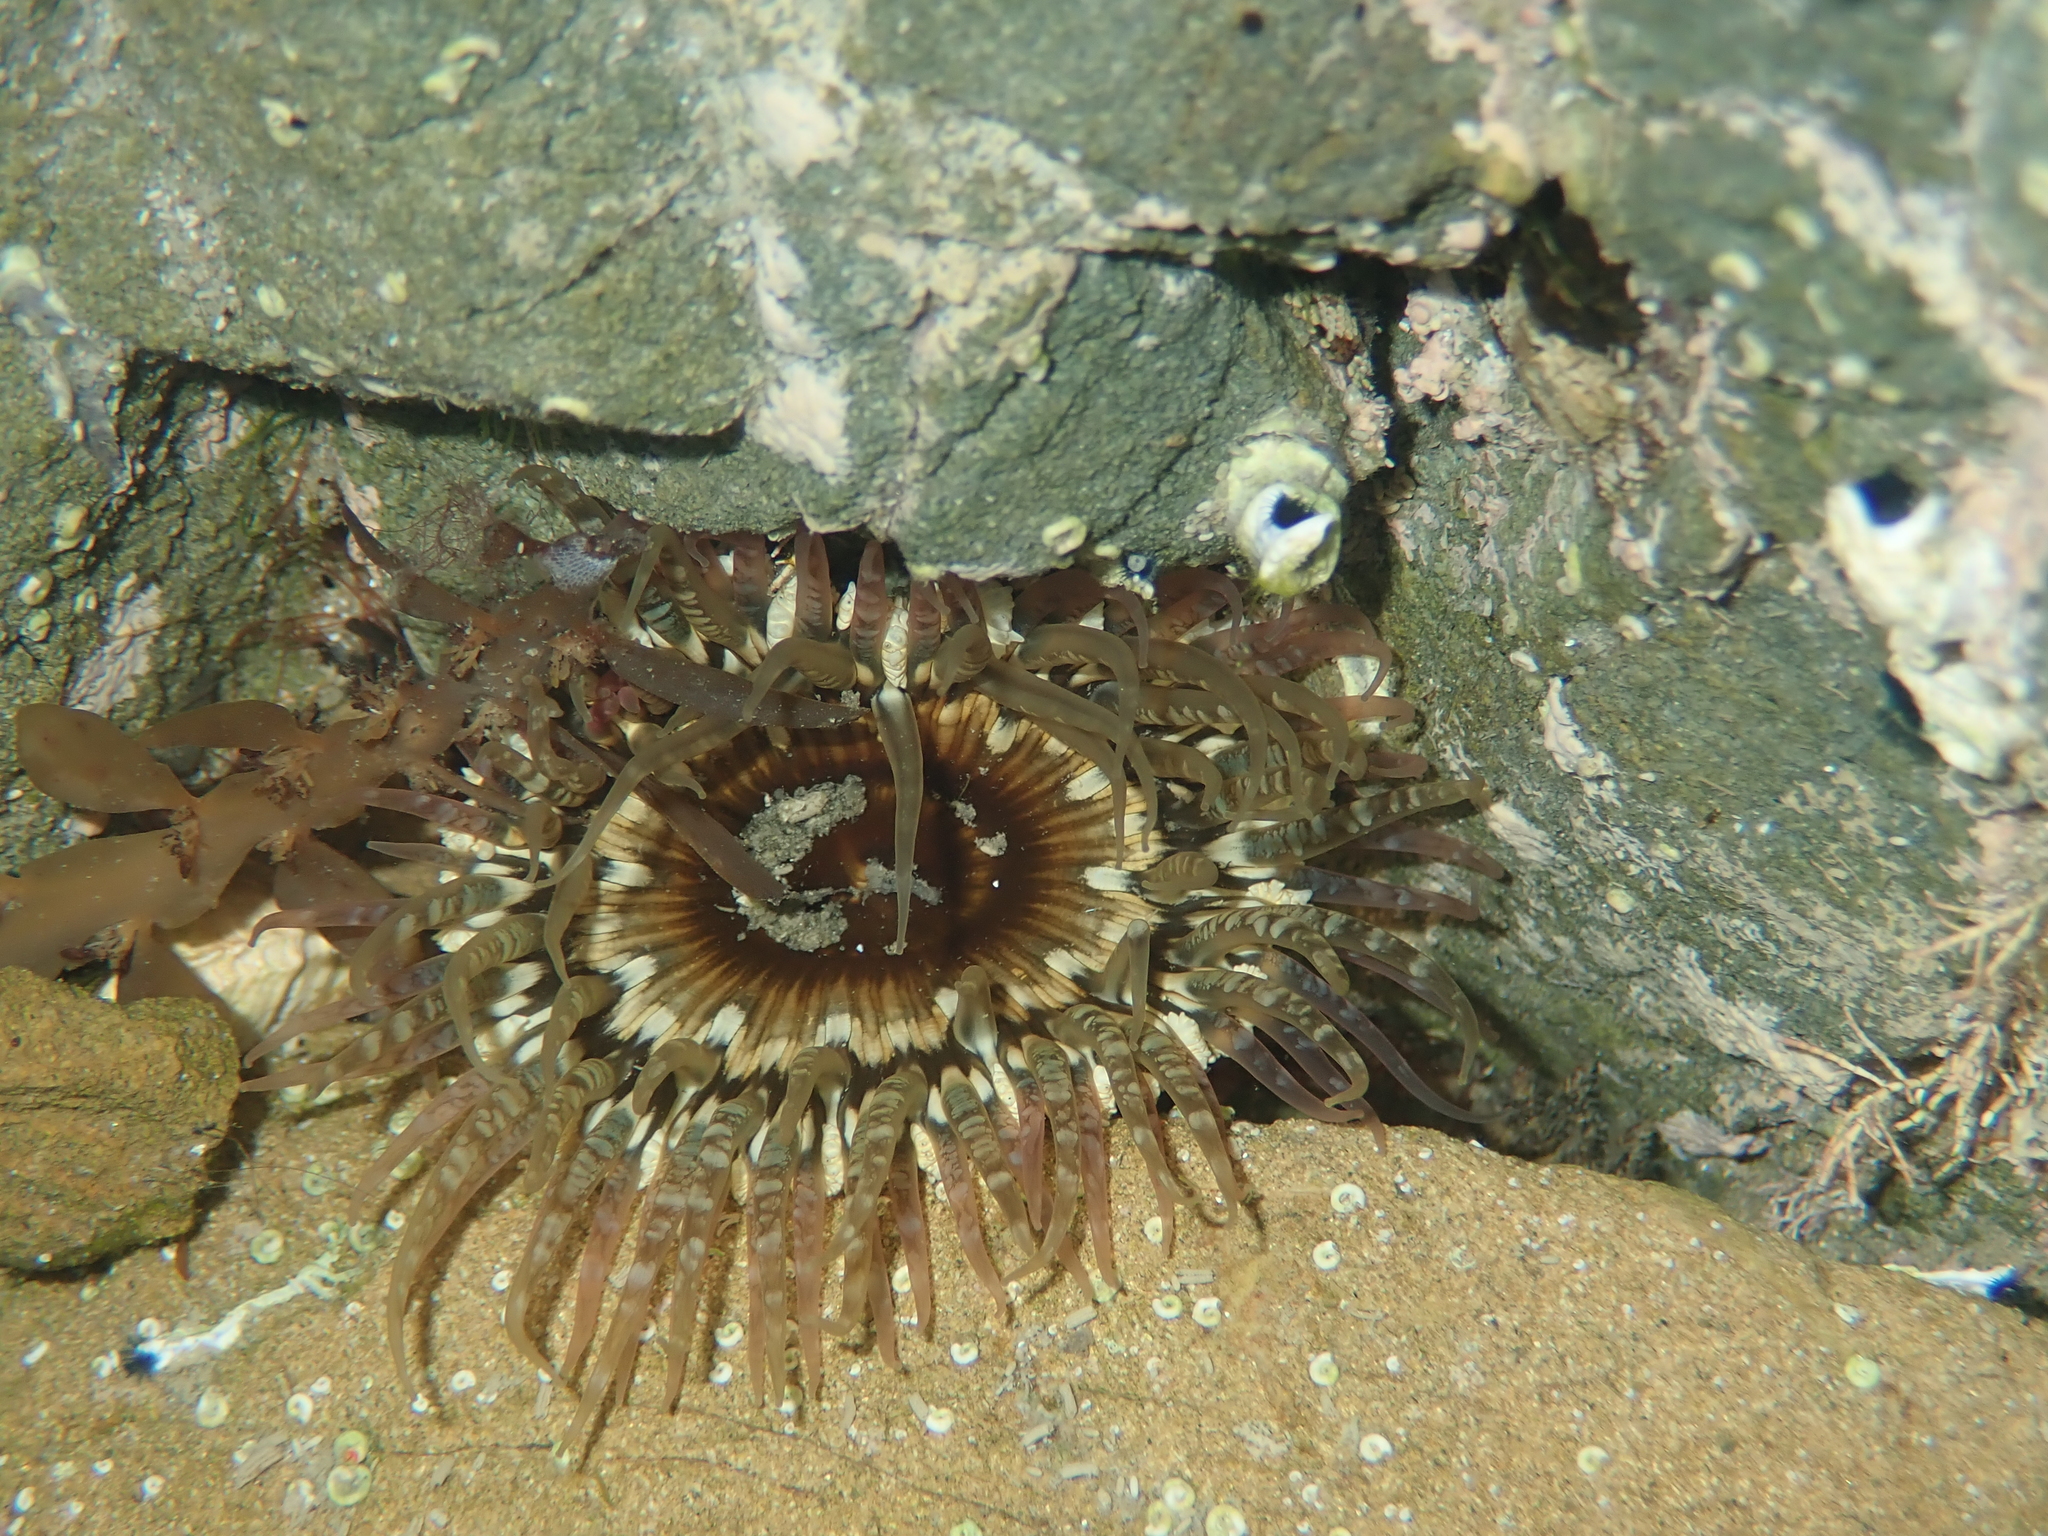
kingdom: Animalia
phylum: Cnidaria
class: Anthozoa
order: Actiniaria
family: Actiniidae
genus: Oulactis
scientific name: Oulactis muscosa
